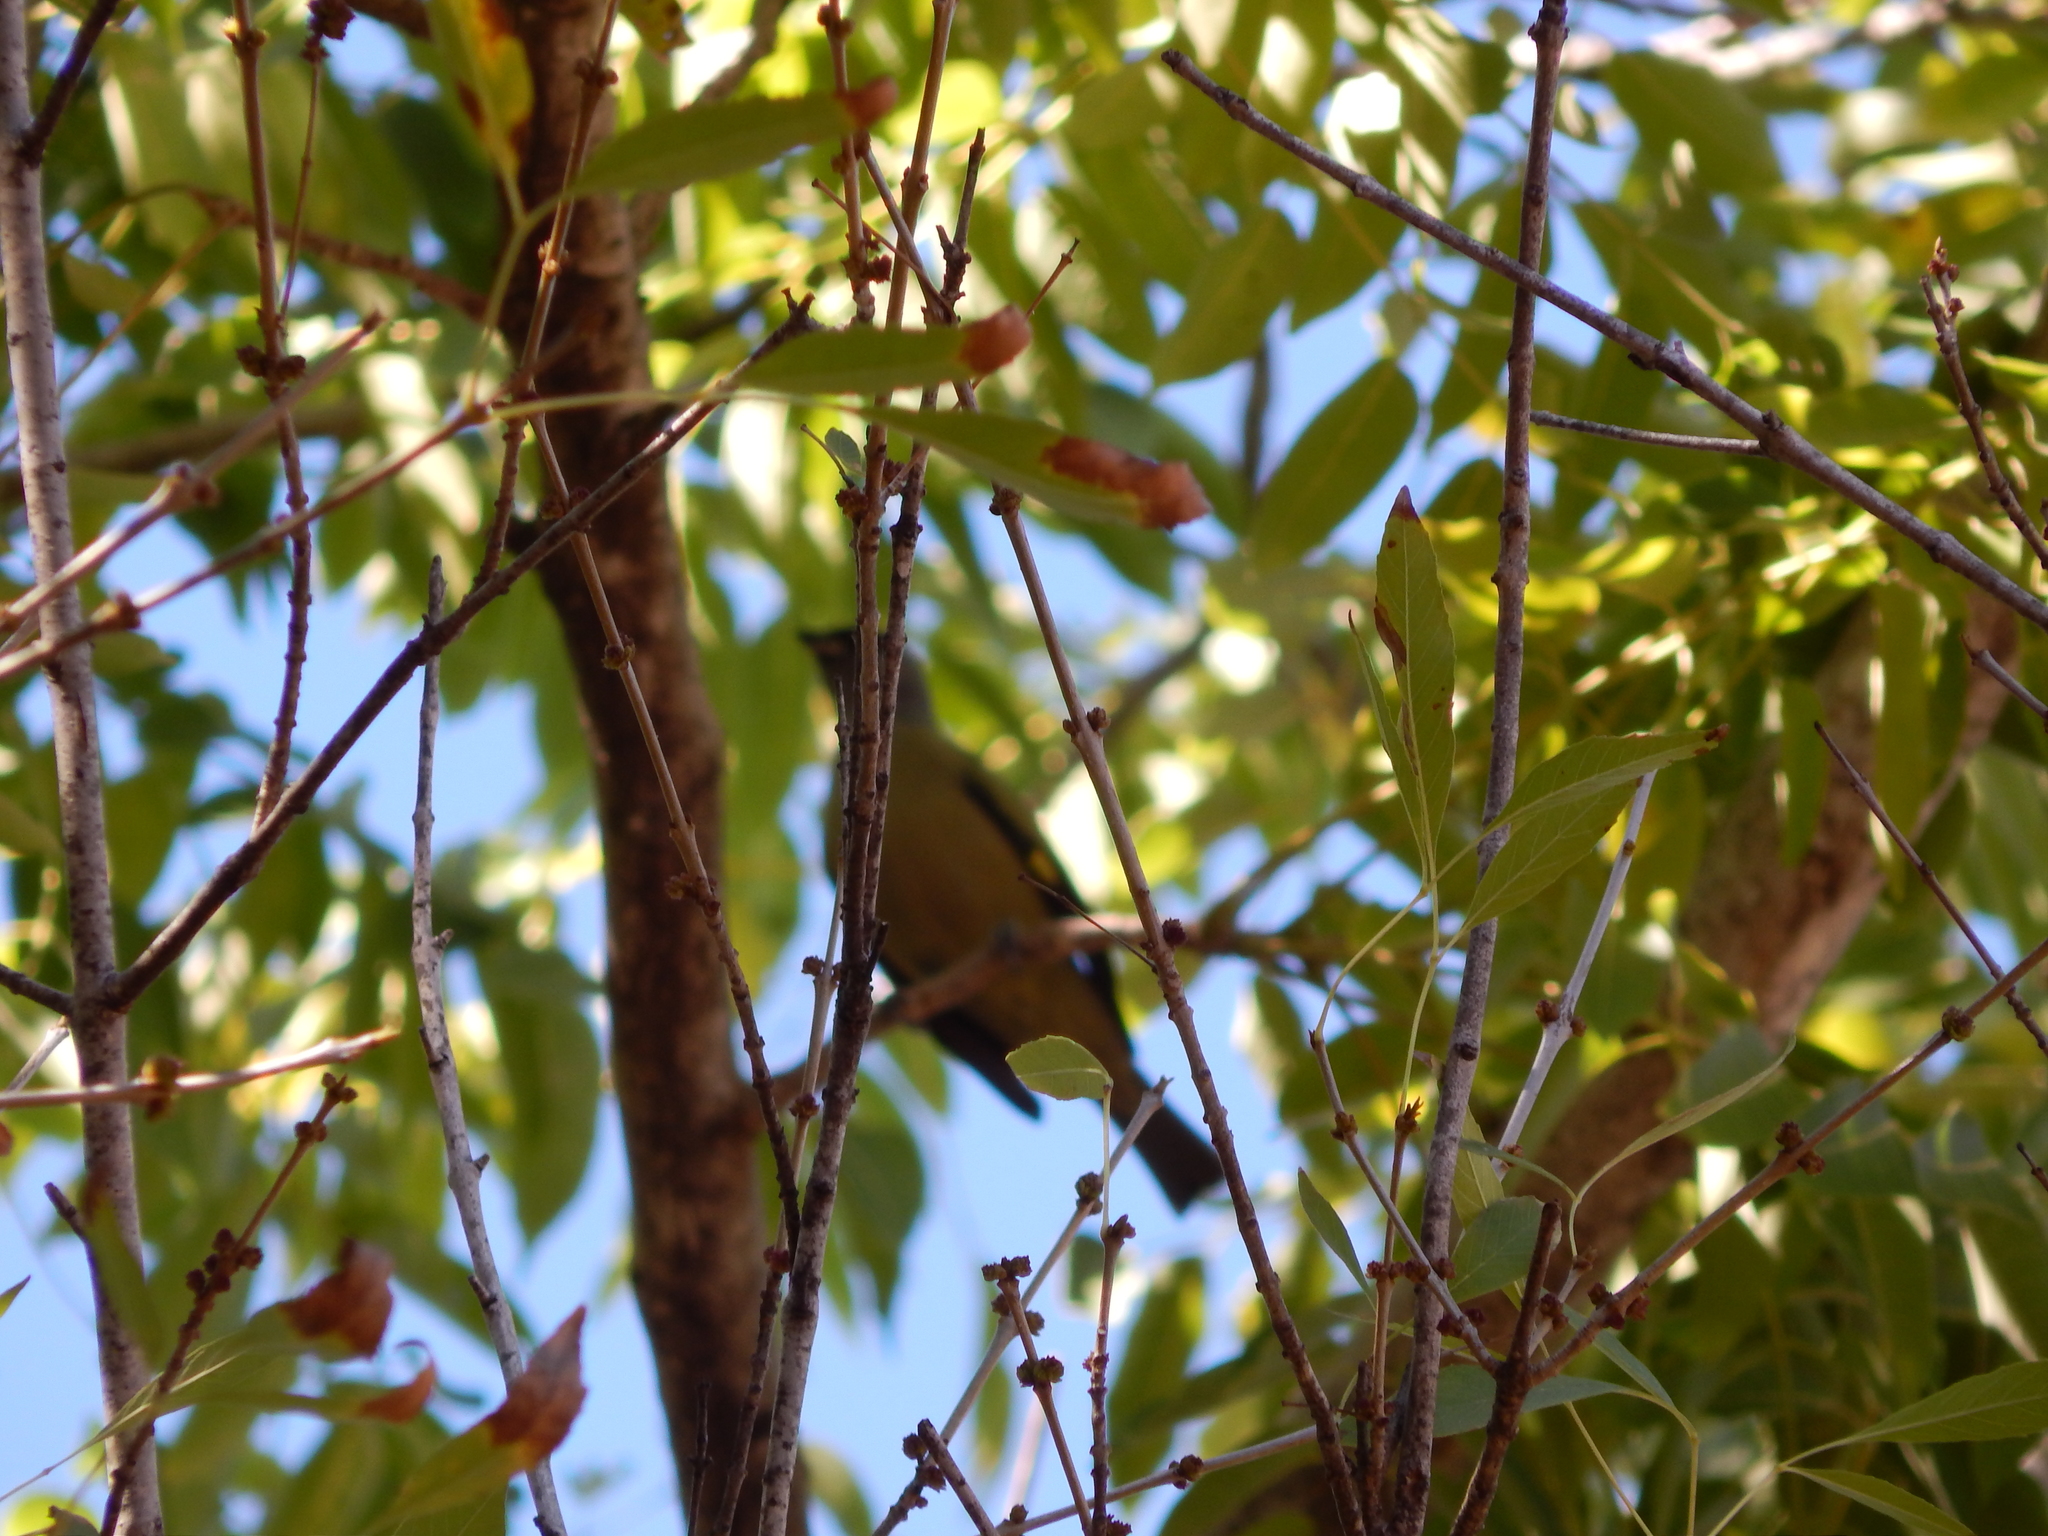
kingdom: Animalia
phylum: Chordata
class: Aves
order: Passeriformes
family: Thraupidae
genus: Thraupis
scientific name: Thraupis abbas
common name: Yellow-winged tanager
